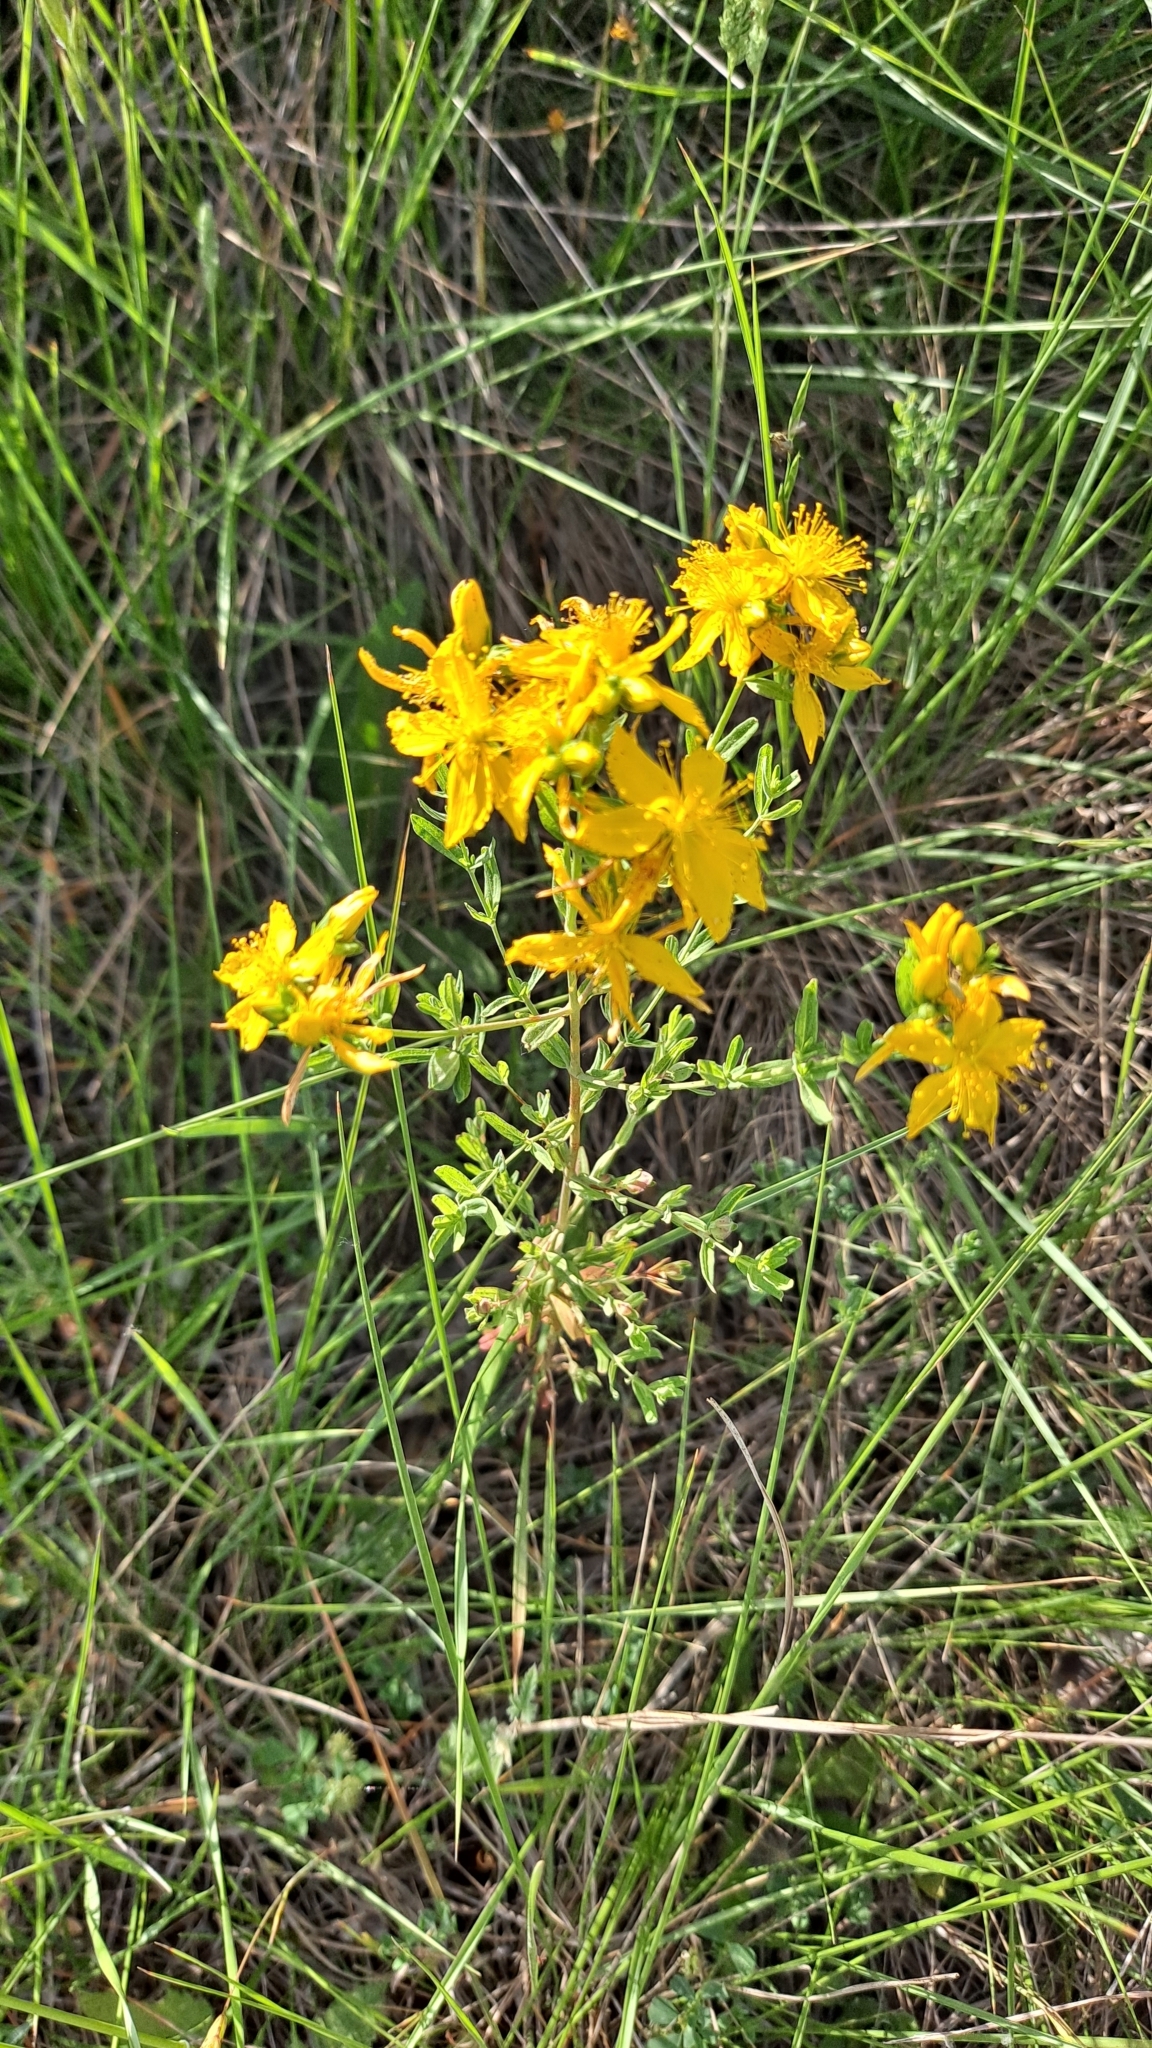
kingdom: Plantae
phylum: Tracheophyta
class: Magnoliopsida
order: Malpighiales
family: Hypericaceae
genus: Hypericum
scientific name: Hypericum perforatum
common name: Common st. johnswort
